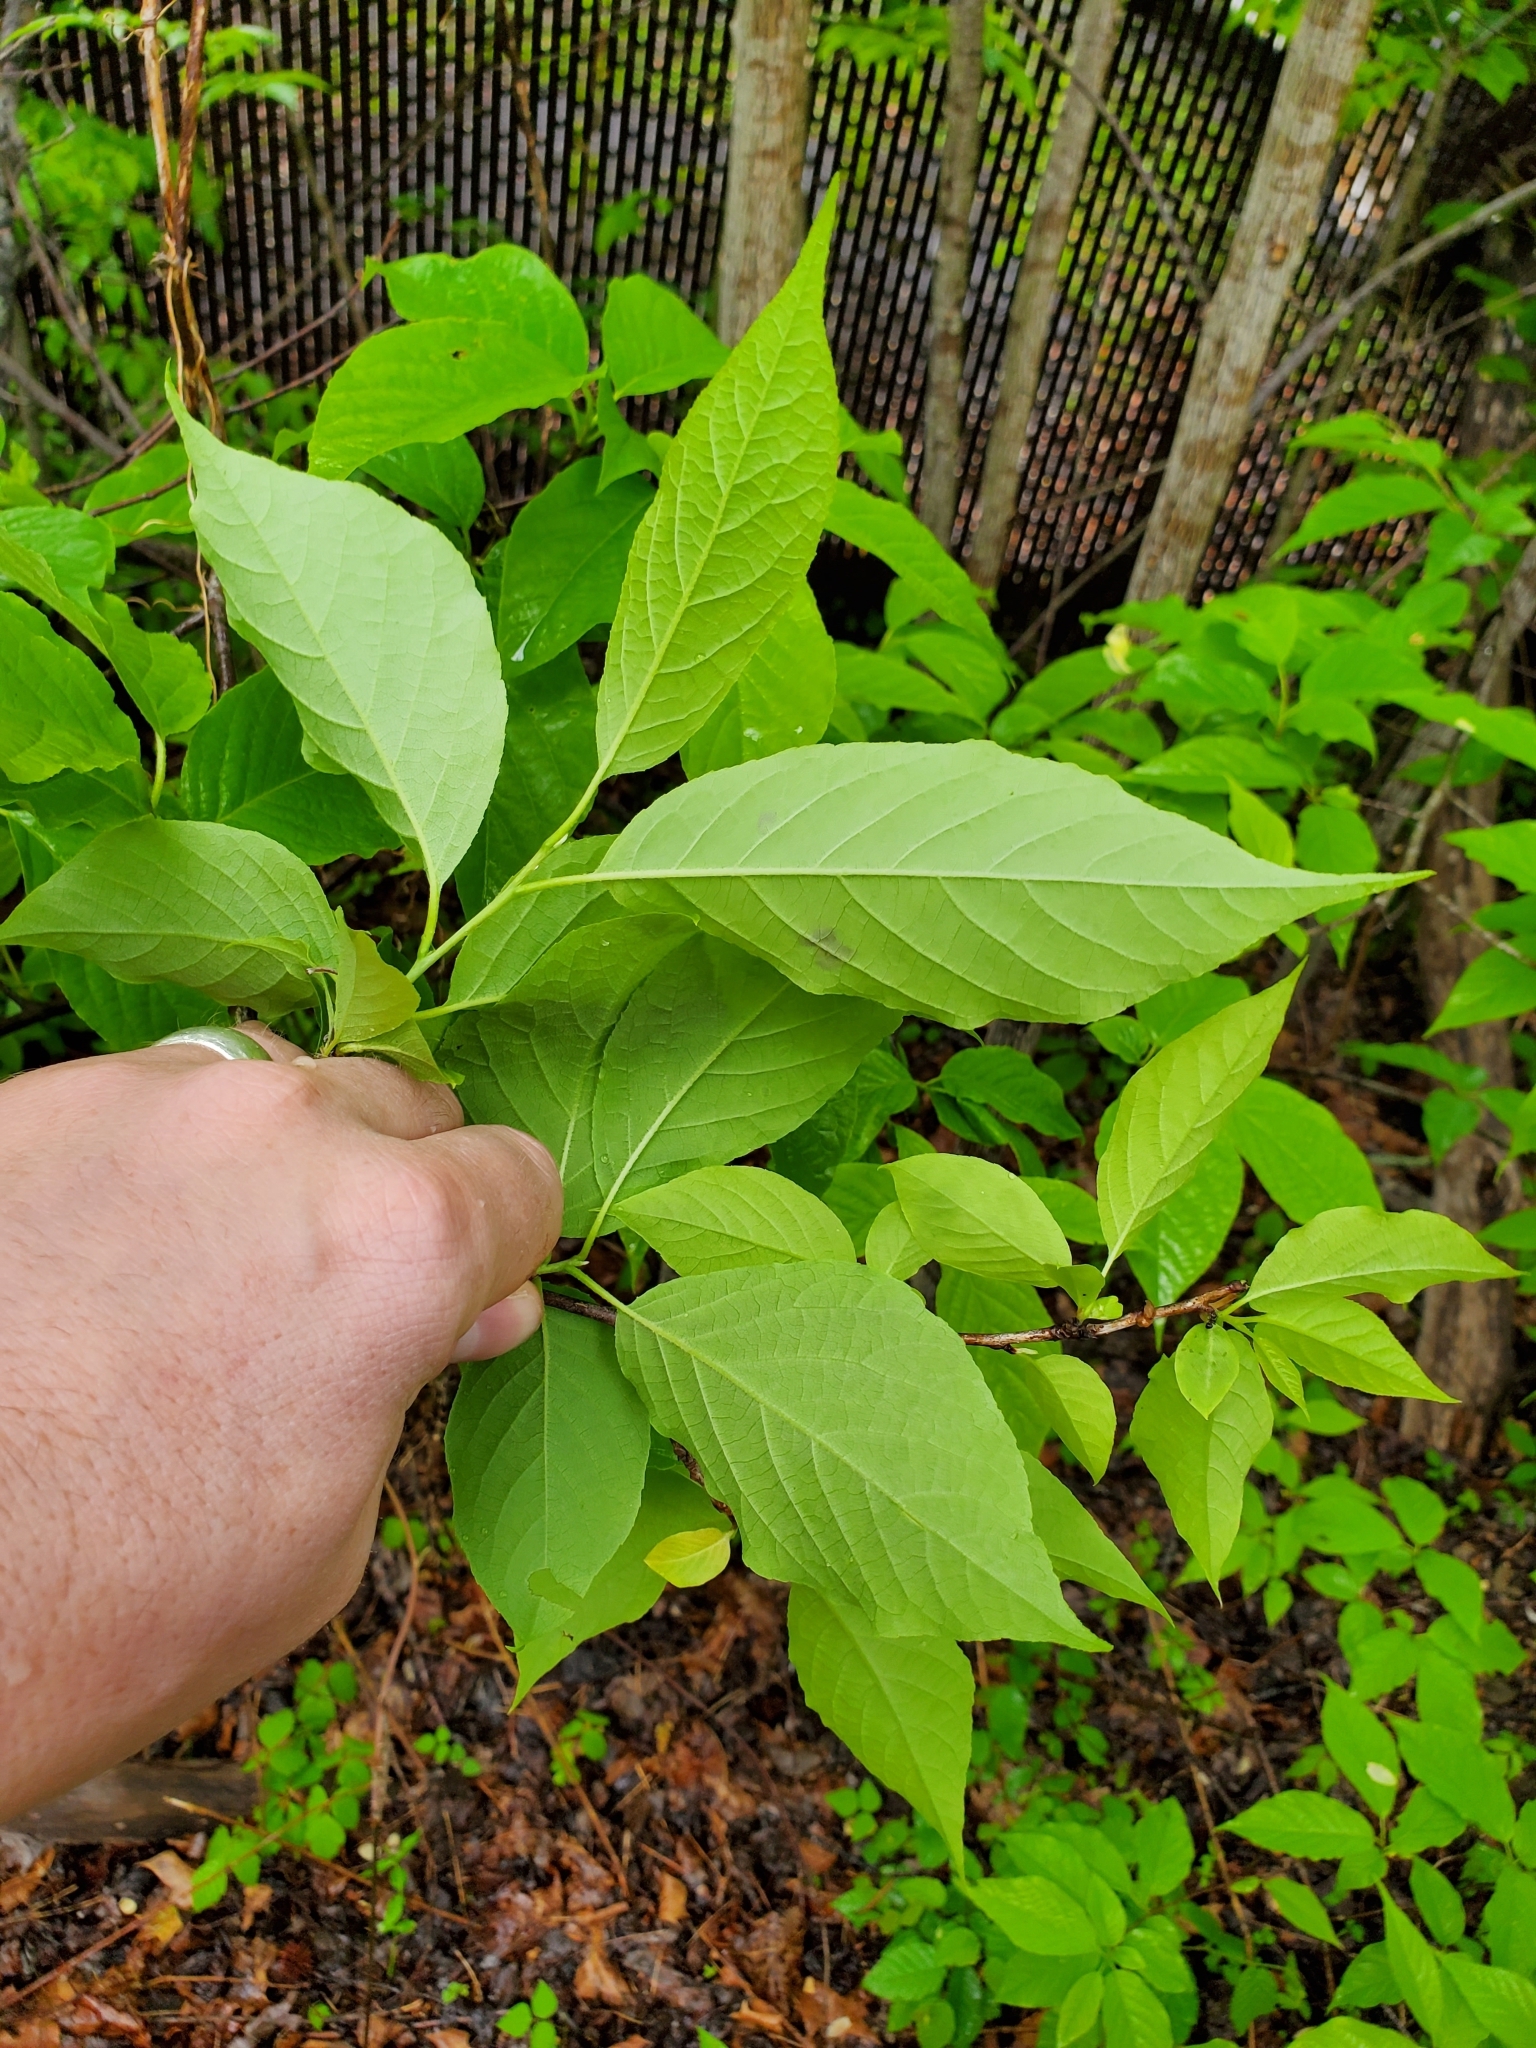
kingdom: Plantae
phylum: Tracheophyta
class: Magnoliopsida
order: Ericales
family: Styracaceae
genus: Halesia
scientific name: Halesia tetraptera
